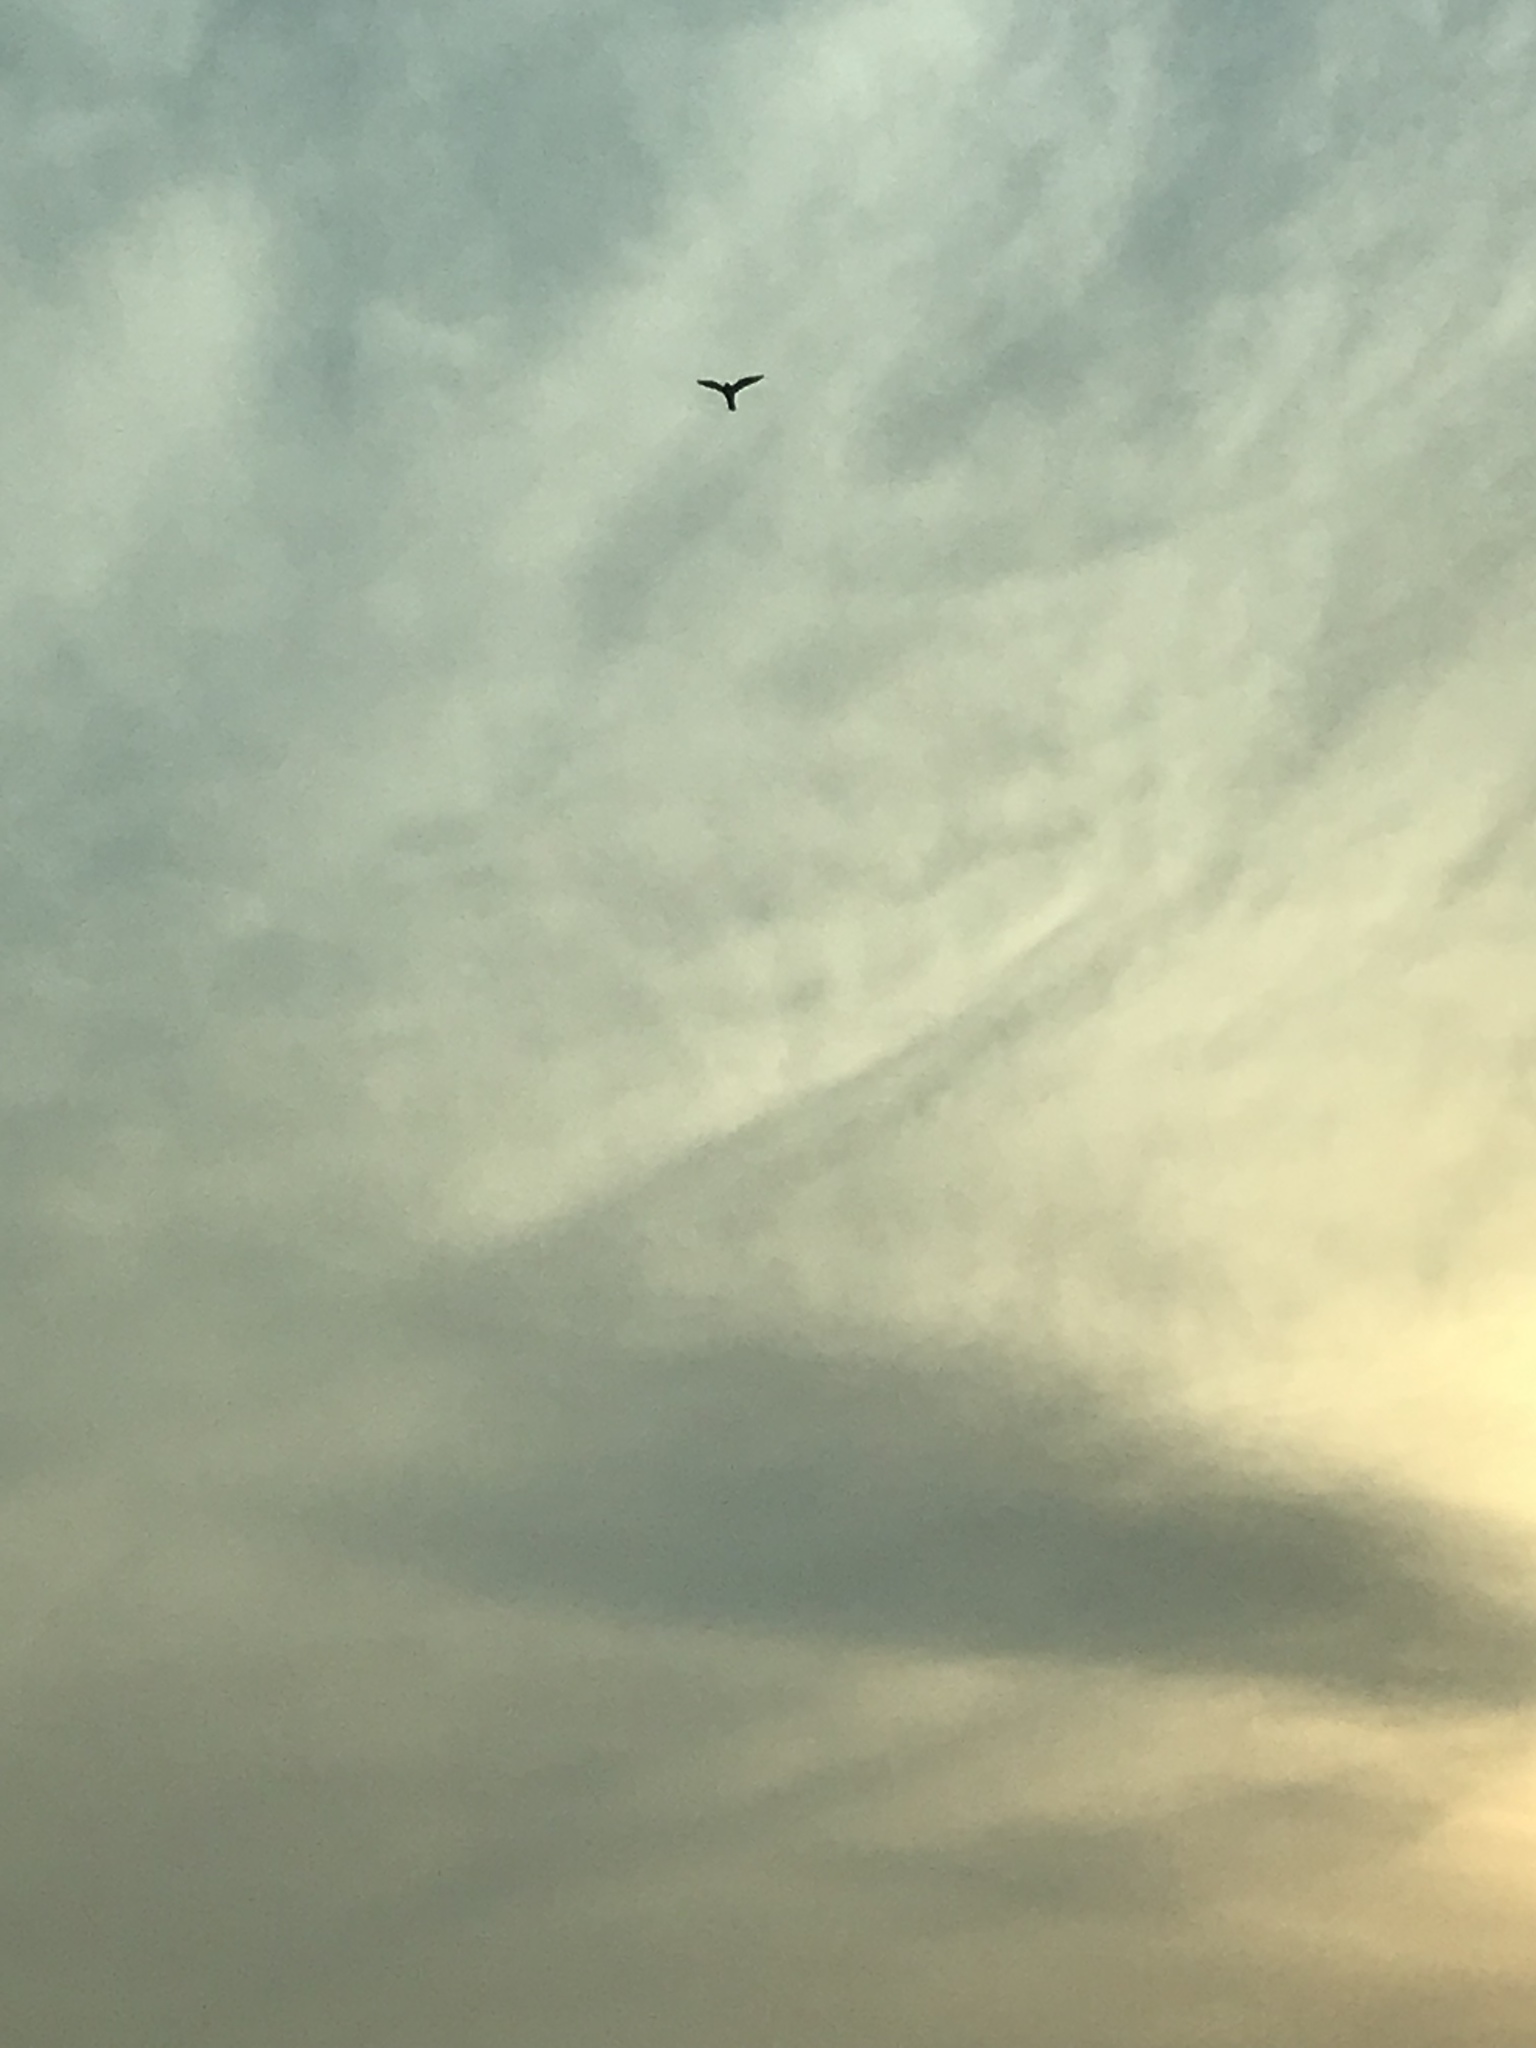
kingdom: Animalia
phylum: Chordata
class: Aves
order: Falconiformes
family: Falconidae
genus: Falco
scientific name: Falco peregrinus
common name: Peregrine falcon
